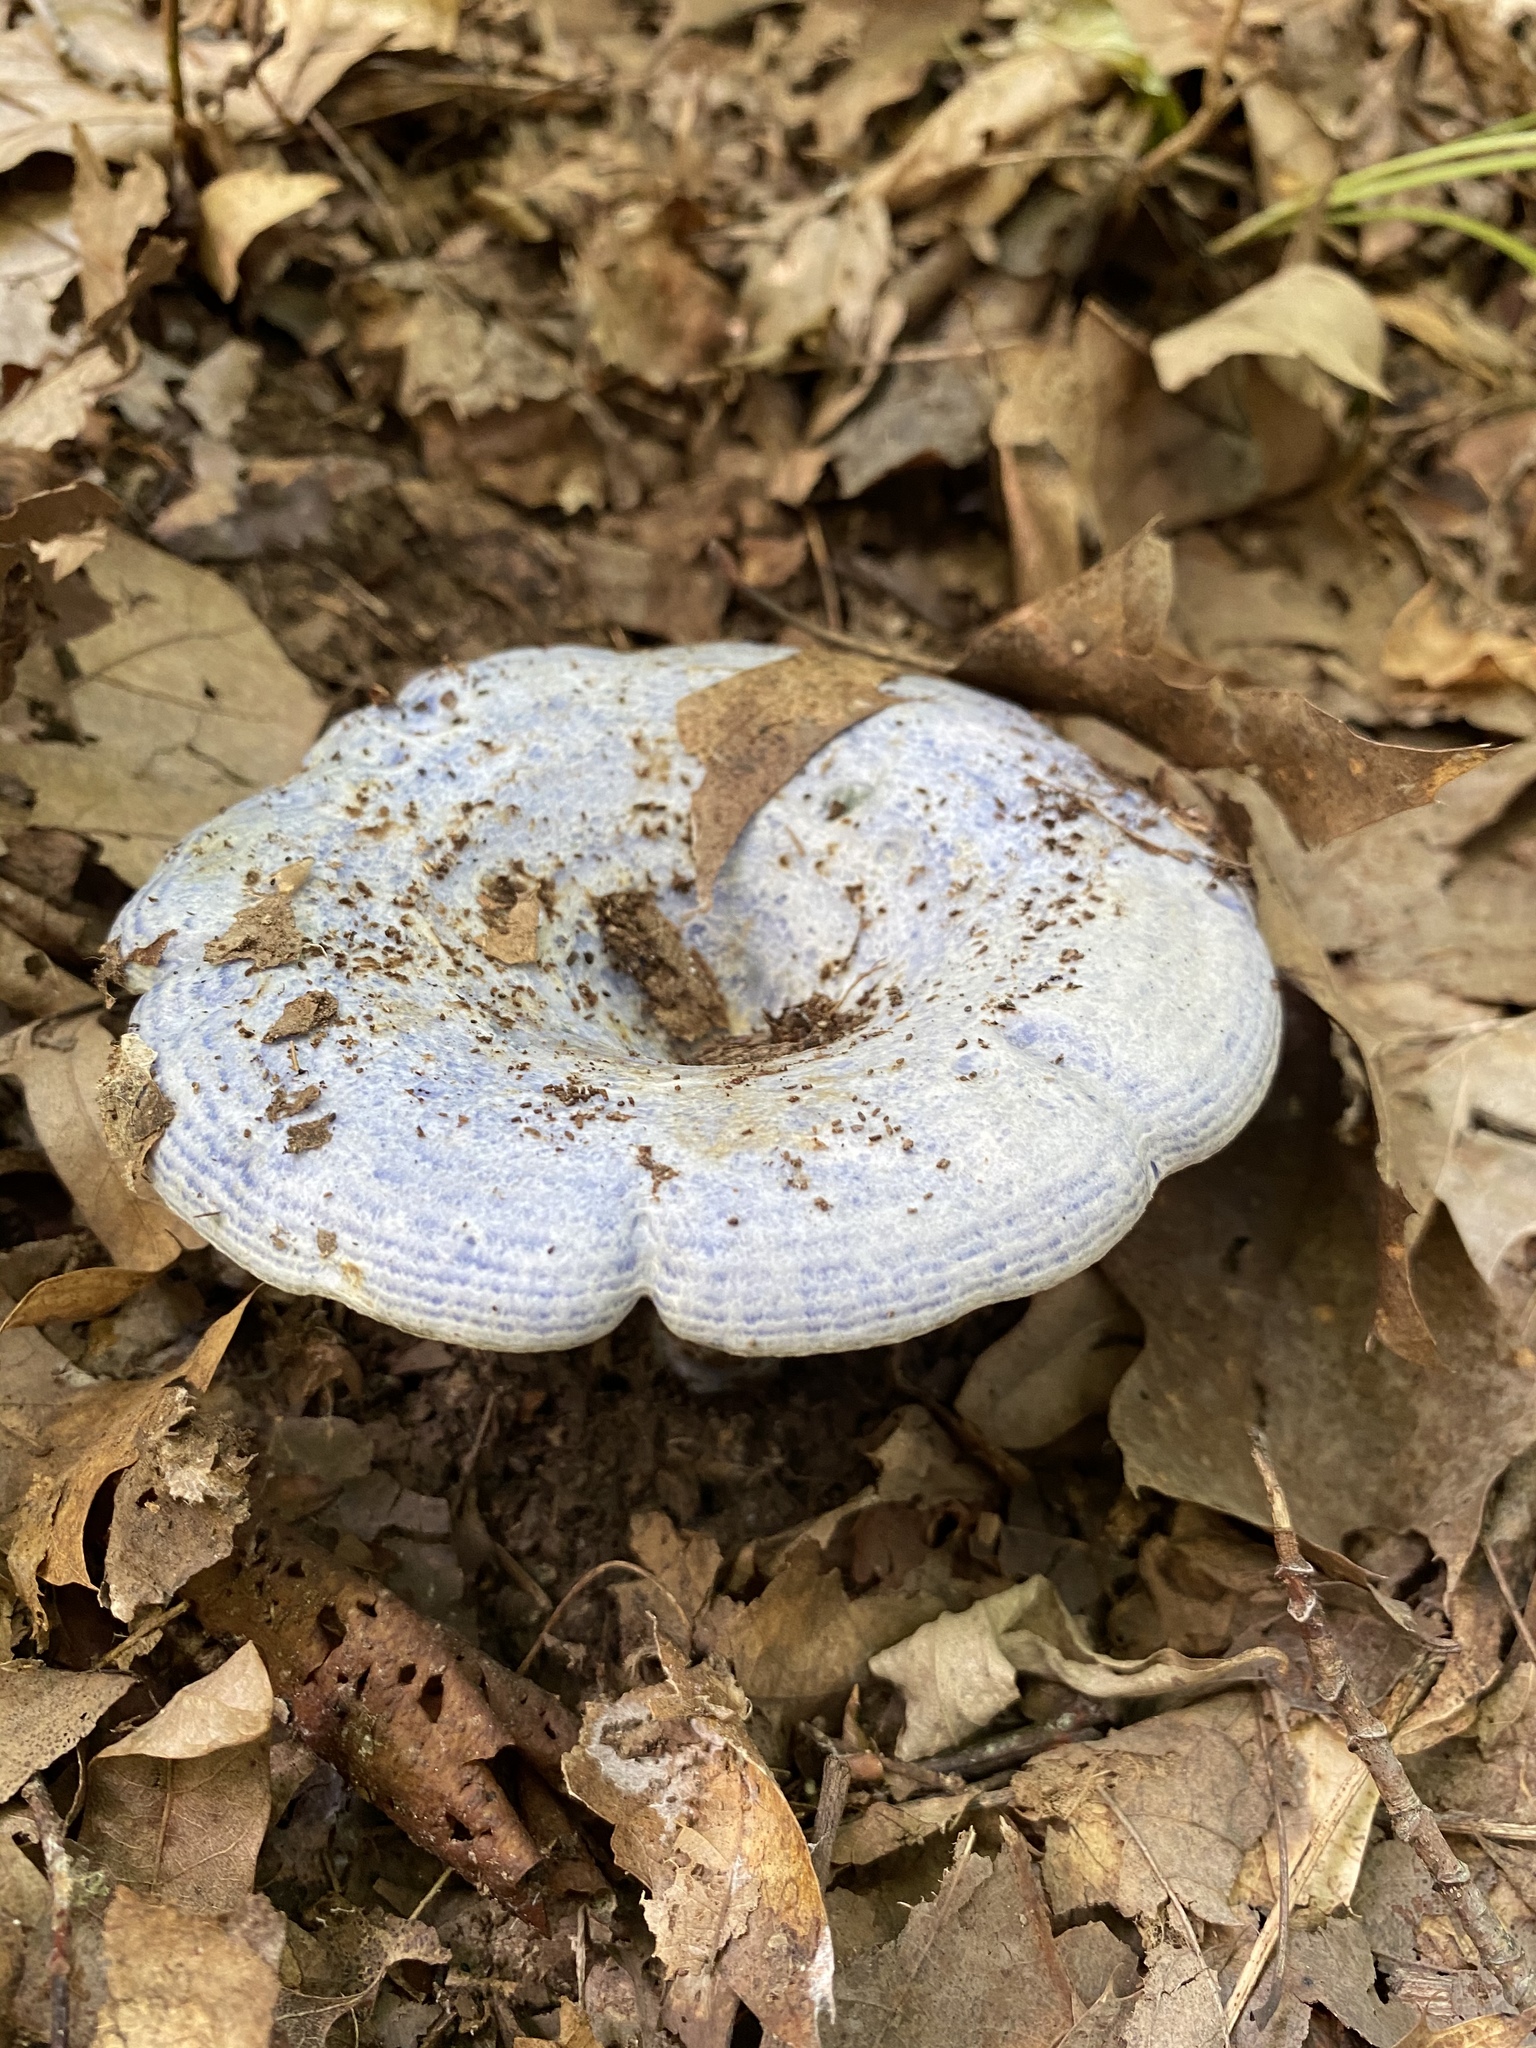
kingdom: Fungi
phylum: Basidiomycota
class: Agaricomycetes
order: Russulales
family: Russulaceae
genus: Lactarius
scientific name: Lactarius indigo
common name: Indigo milk cap
